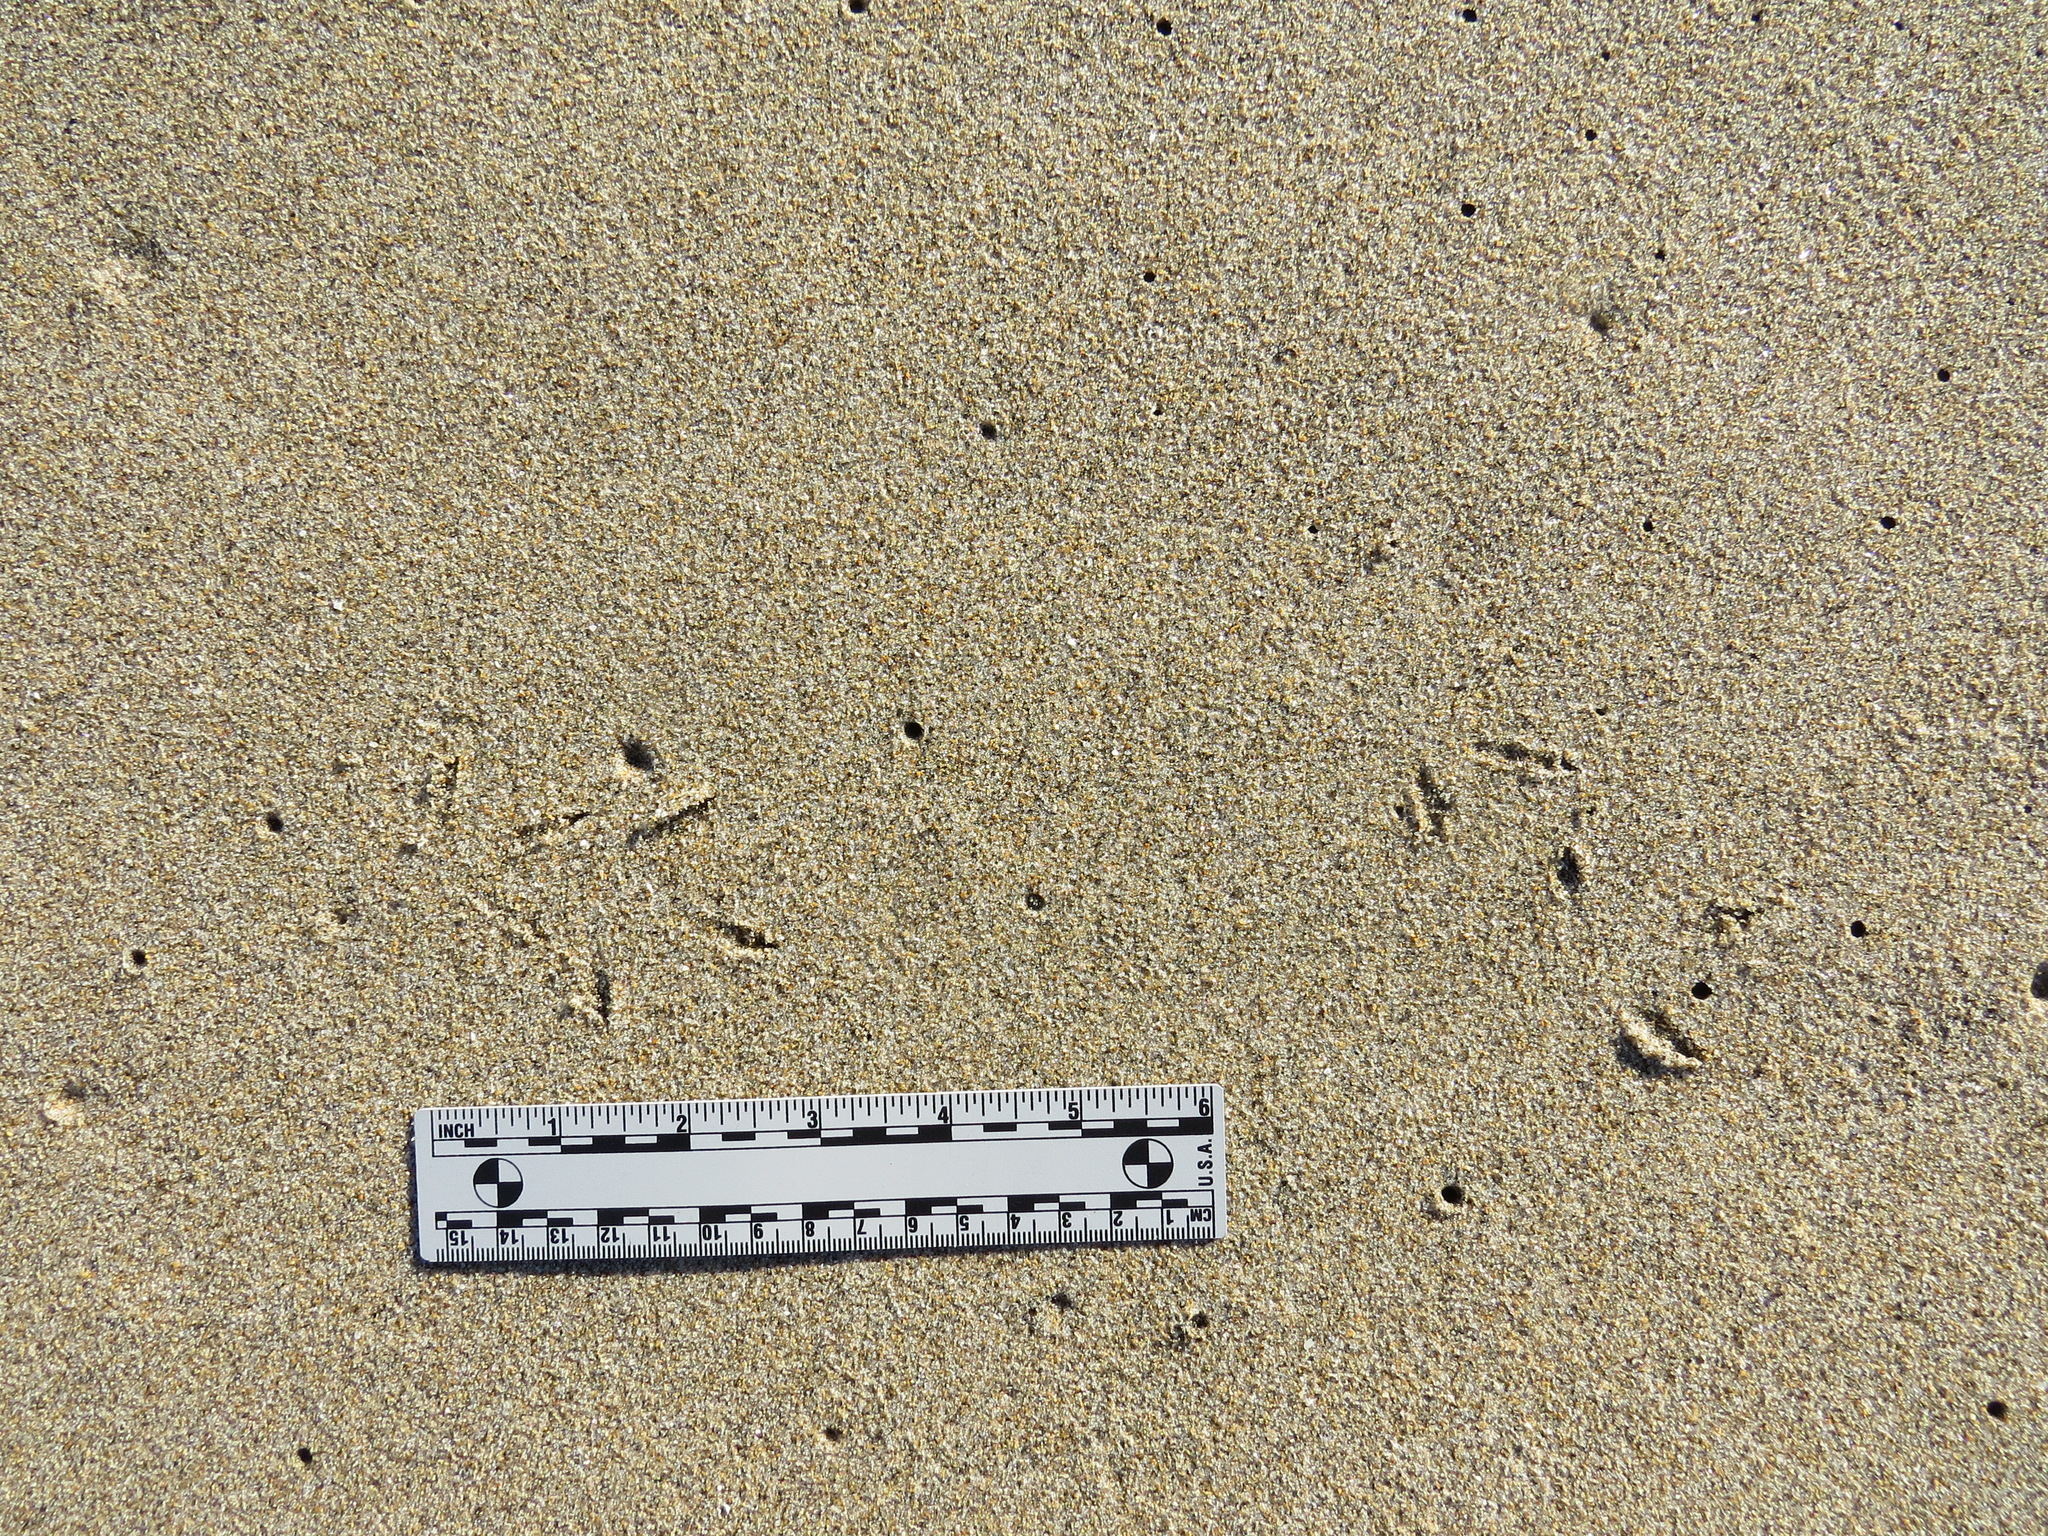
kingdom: Animalia
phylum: Chordata
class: Aves
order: Charadriiformes
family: Charadriidae
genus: Pluvialis
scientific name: Pluvialis fulva
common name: Pacific golden plover
